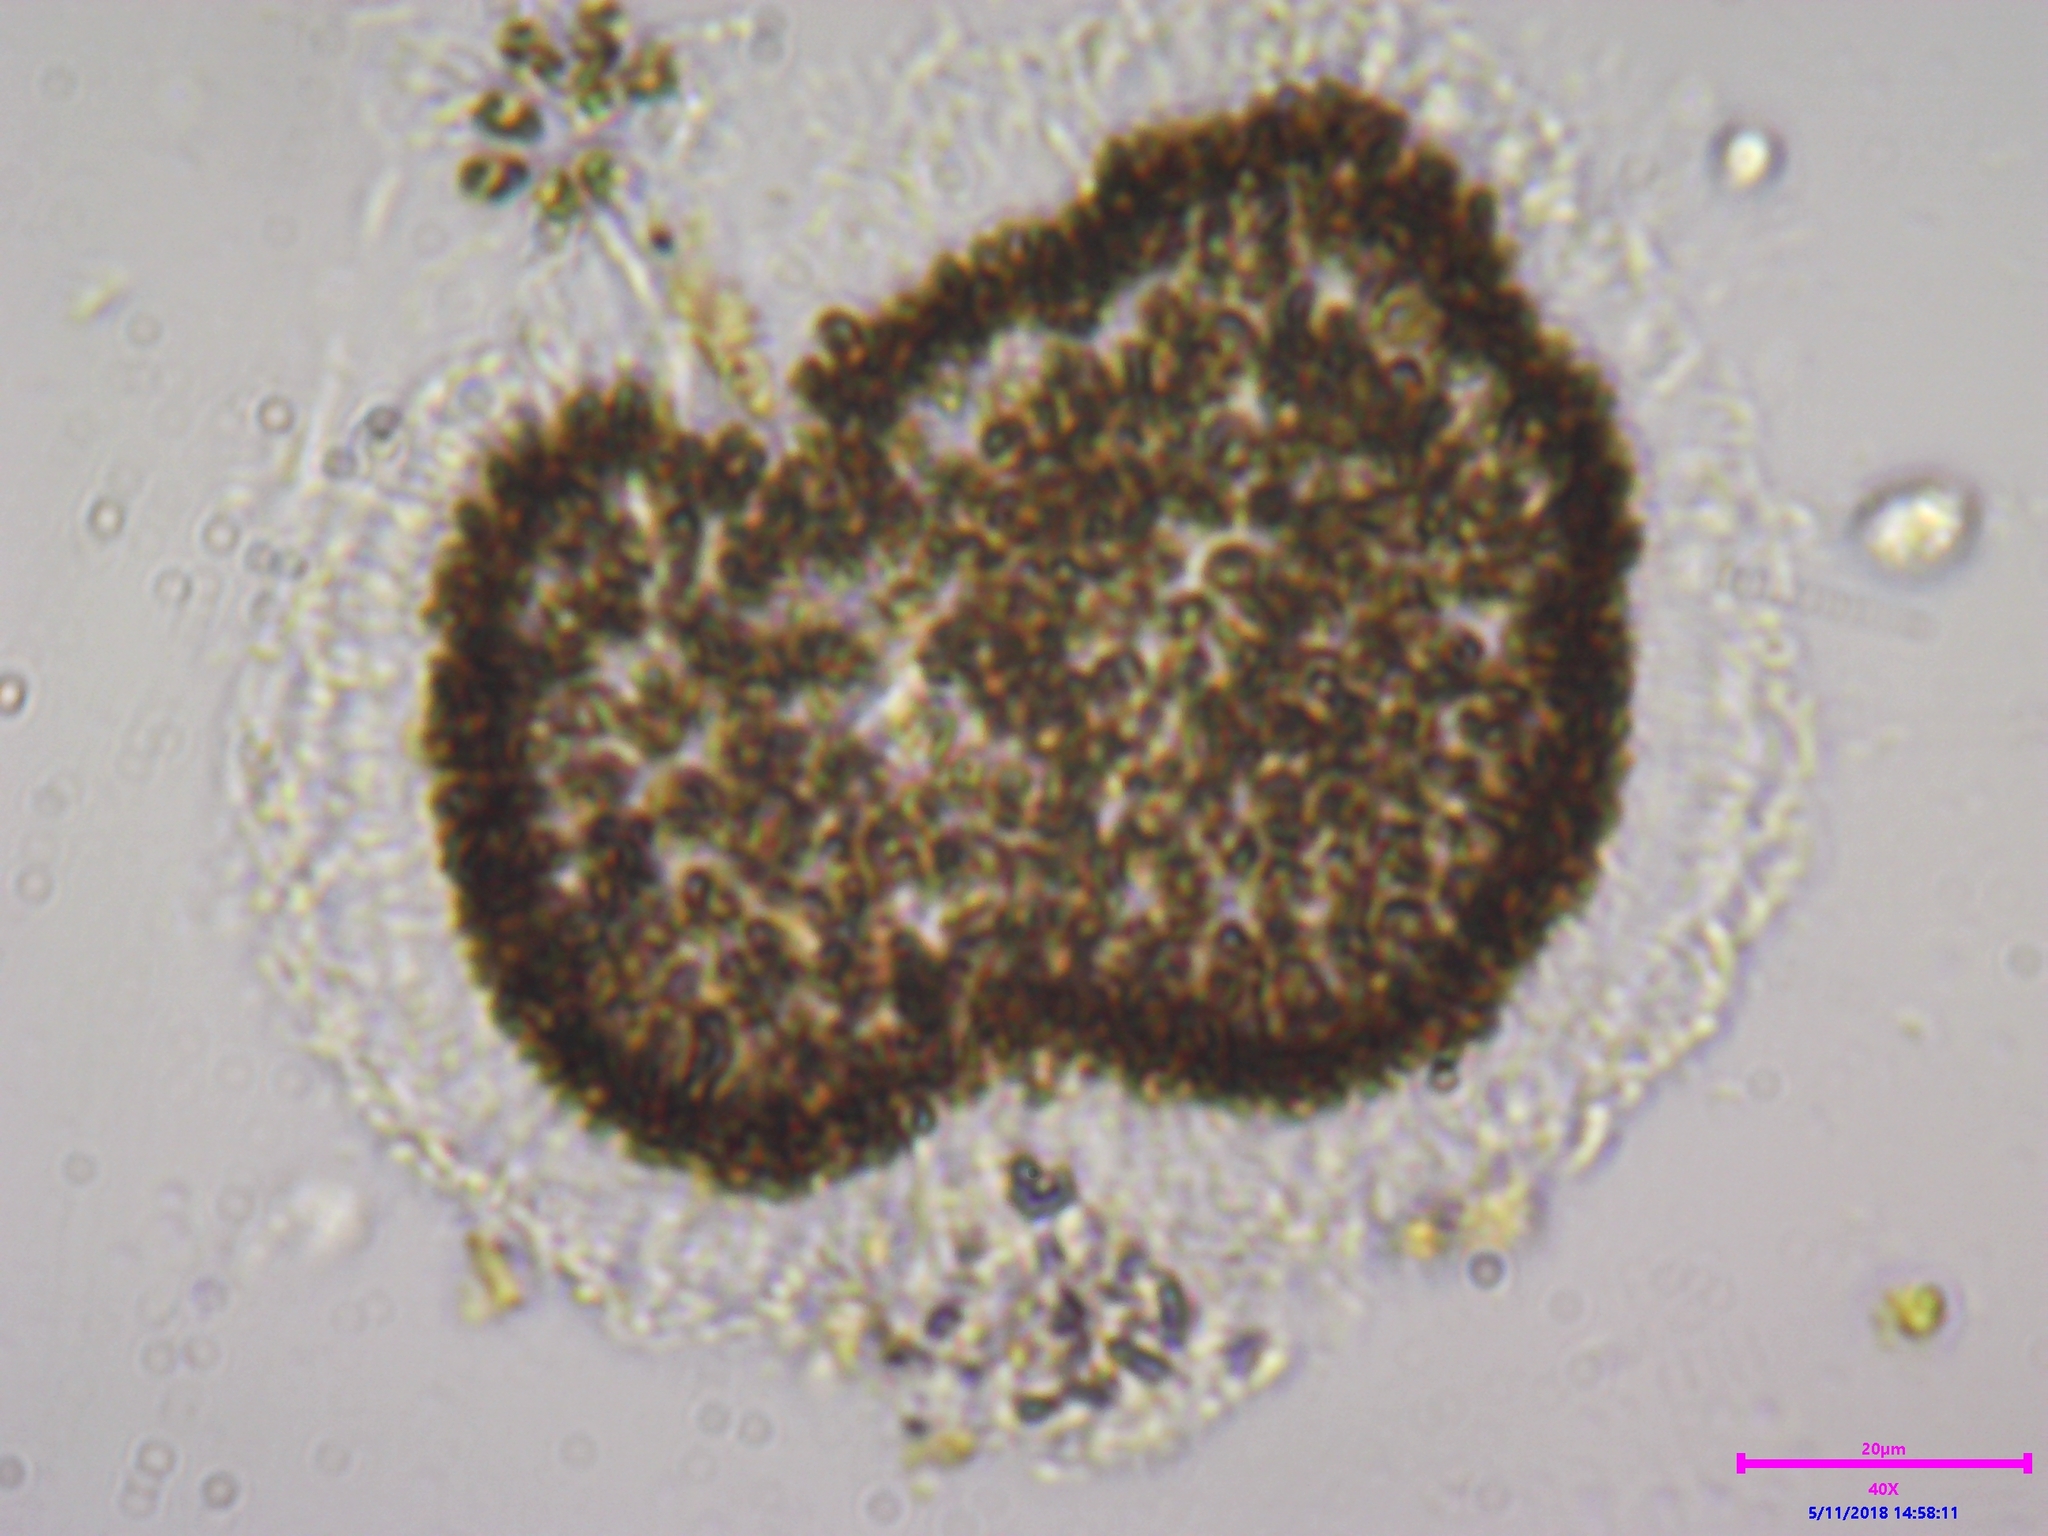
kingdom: Bacteria
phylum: Cyanobacteria
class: Cyanobacteriia
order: Synechococcales
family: Coelosphaeriaceae
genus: Woronichinia
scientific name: Woronichinia naegeliana
